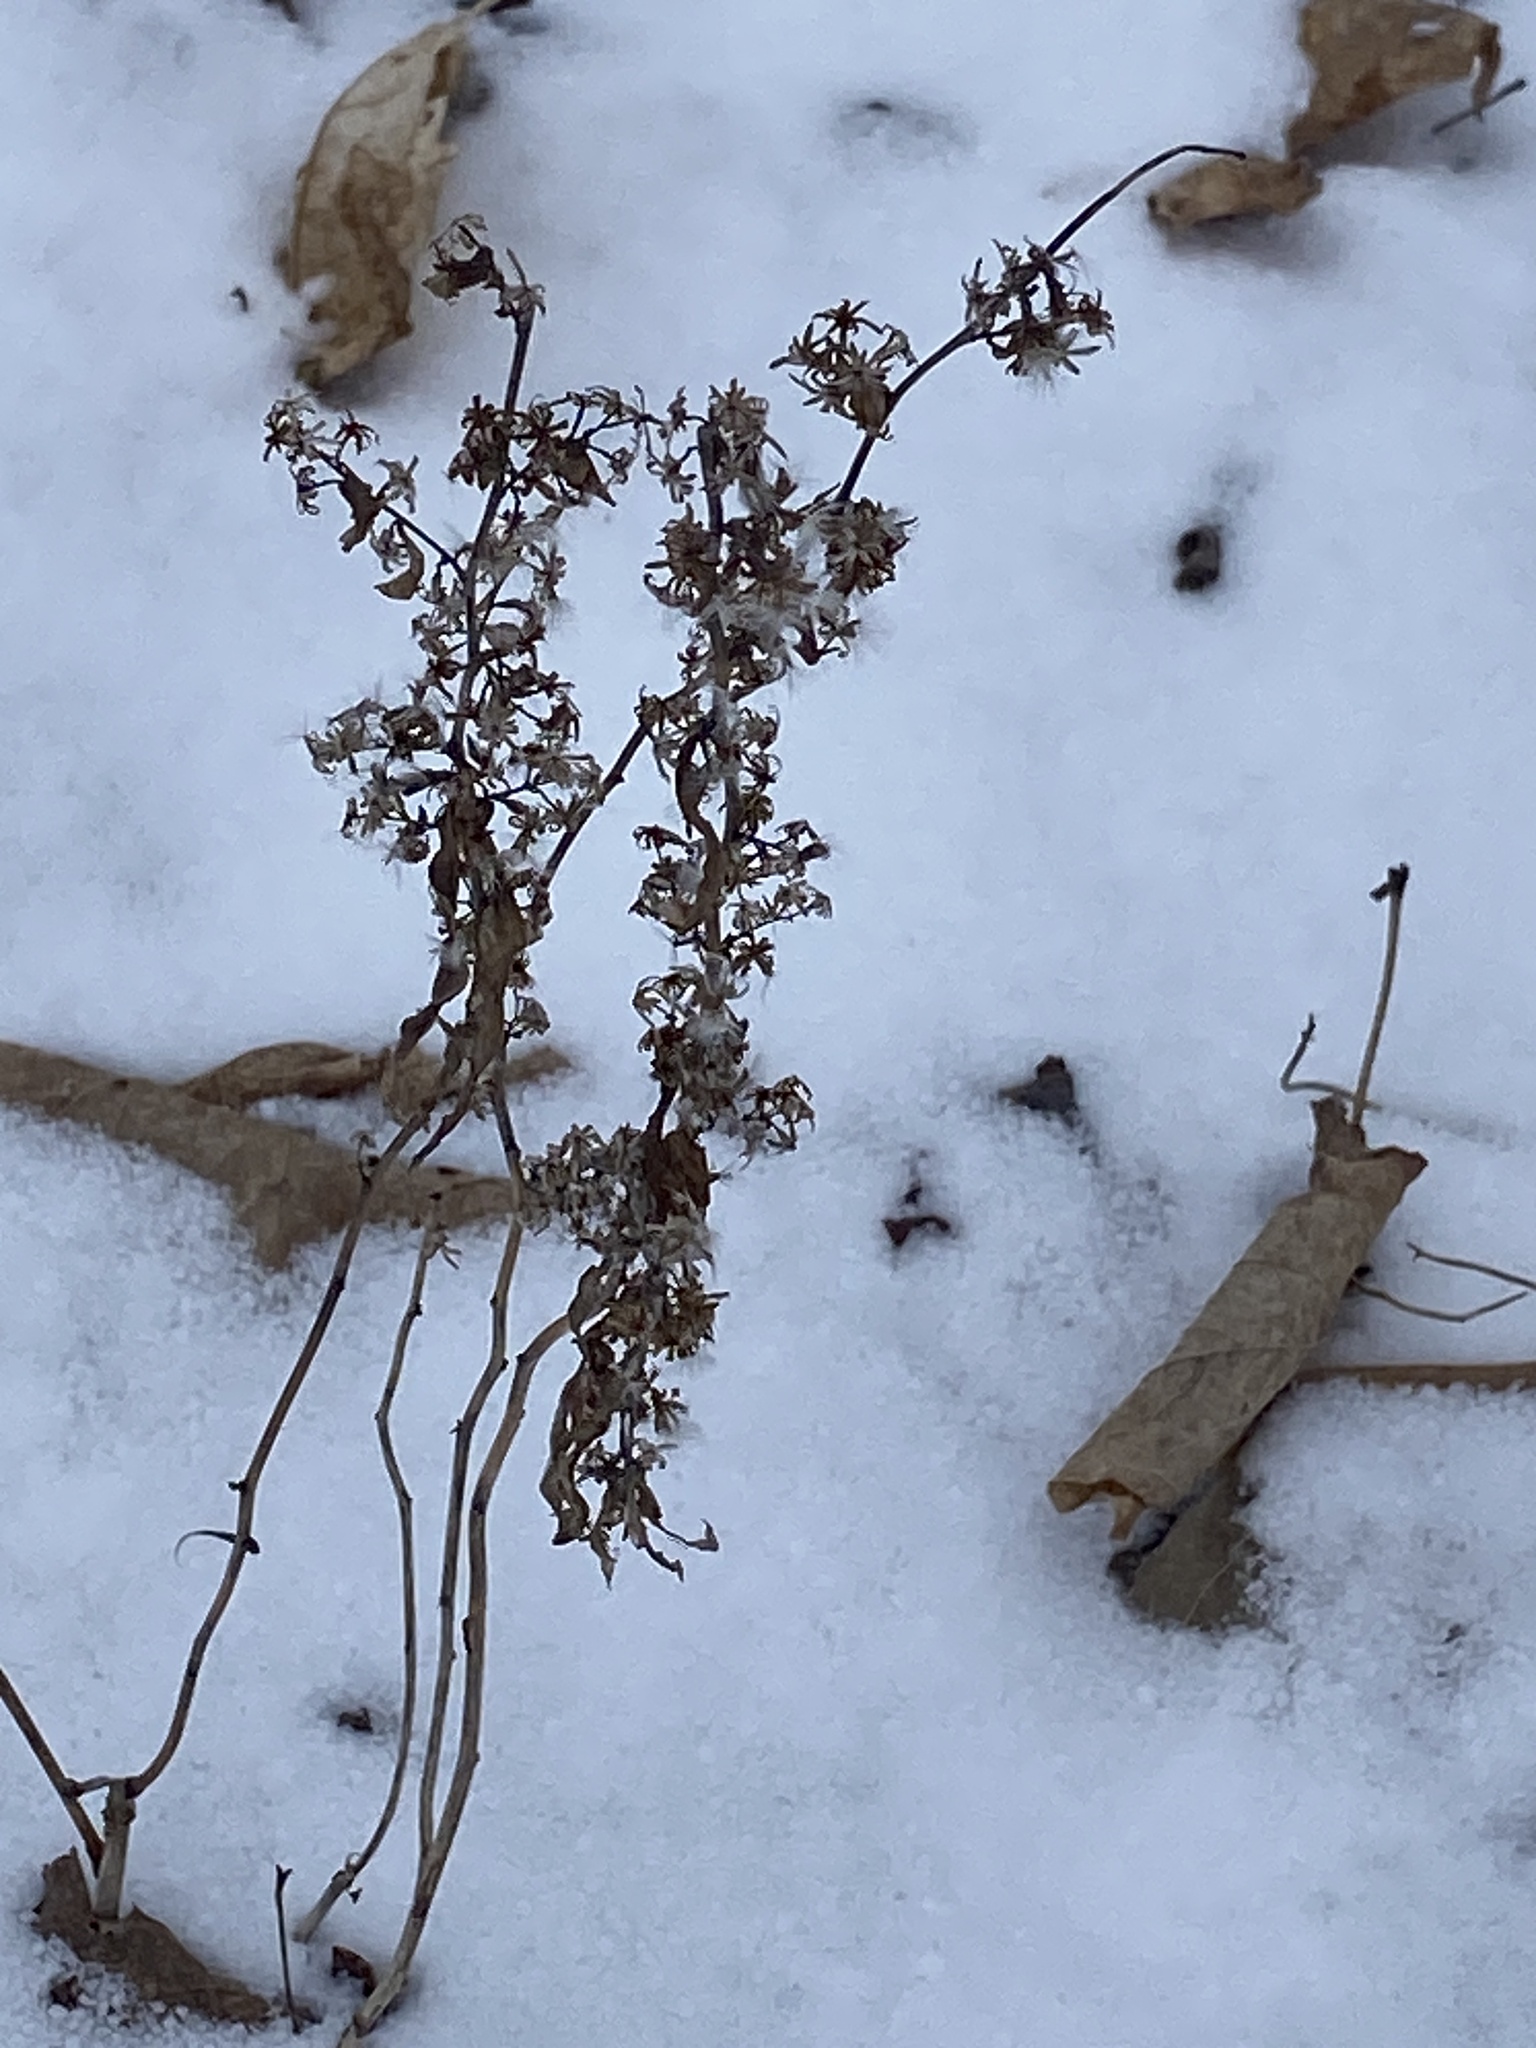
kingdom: Plantae
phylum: Tracheophyta
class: Magnoliopsida
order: Asterales
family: Asteraceae
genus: Solidago
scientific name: Solidago caesia
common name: Woodland goldenrod
